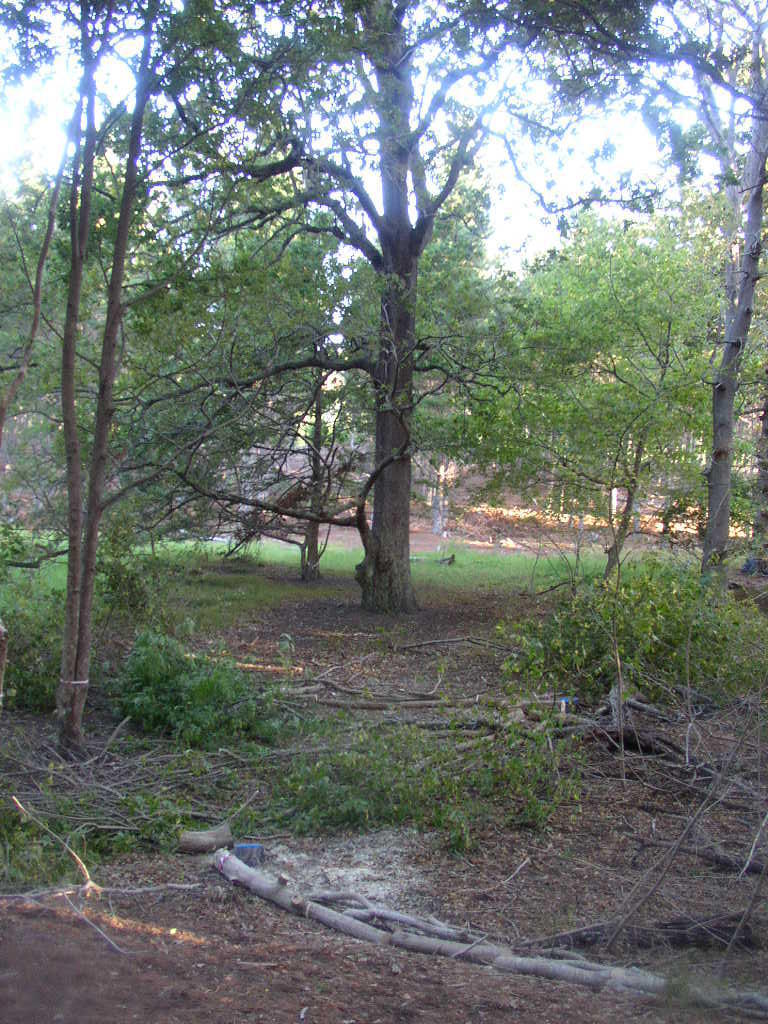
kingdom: Plantae
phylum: Tracheophyta
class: Magnoliopsida
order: Fagales
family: Fagaceae
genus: Quercus
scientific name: Quercus robur
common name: Pedunculate oak
